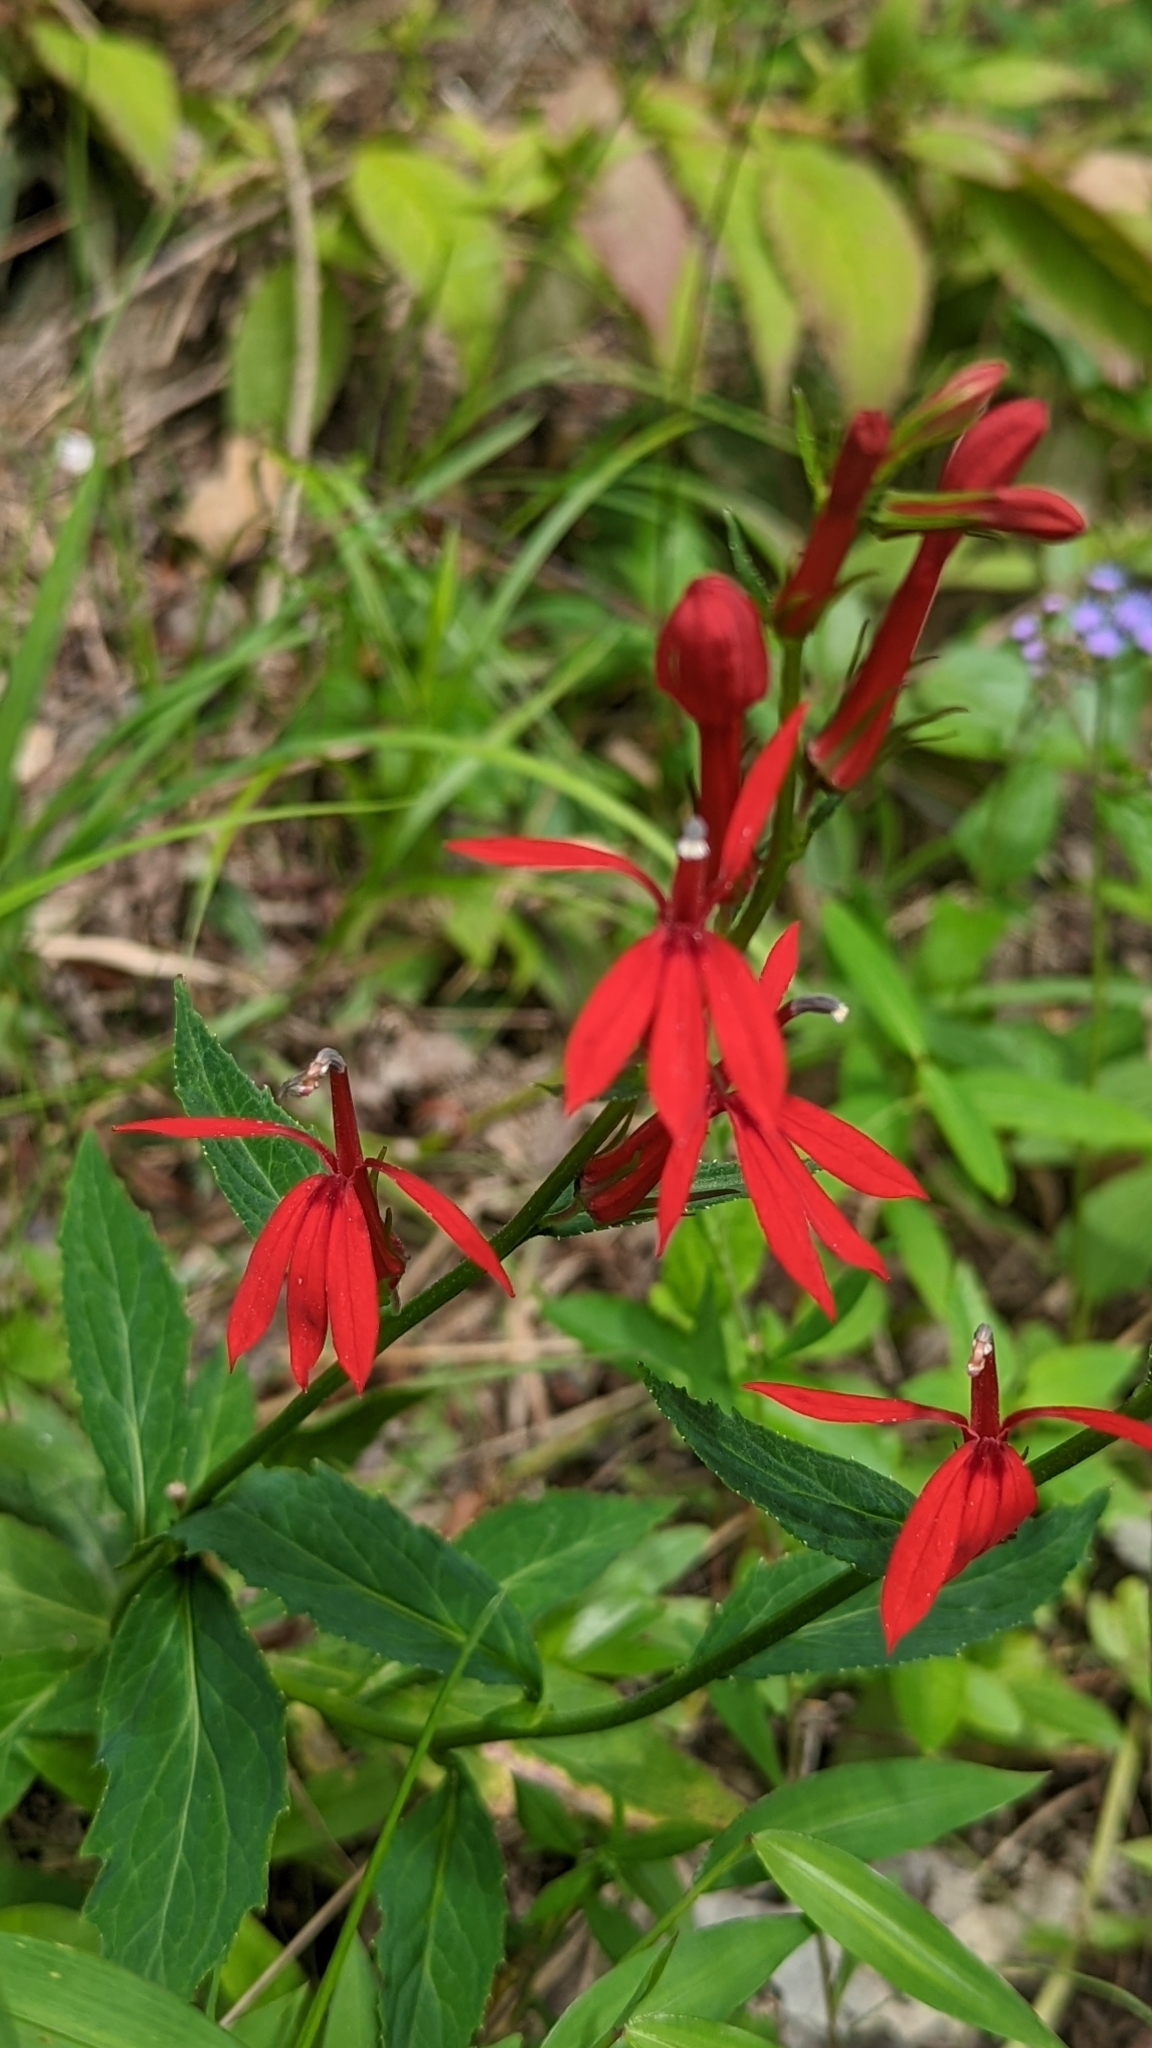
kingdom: Plantae
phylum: Tracheophyta
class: Magnoliopsida
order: Asterales
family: Campanulaceae
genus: Lobelia
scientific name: Lobelia cardinalis
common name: Cardinal flower
